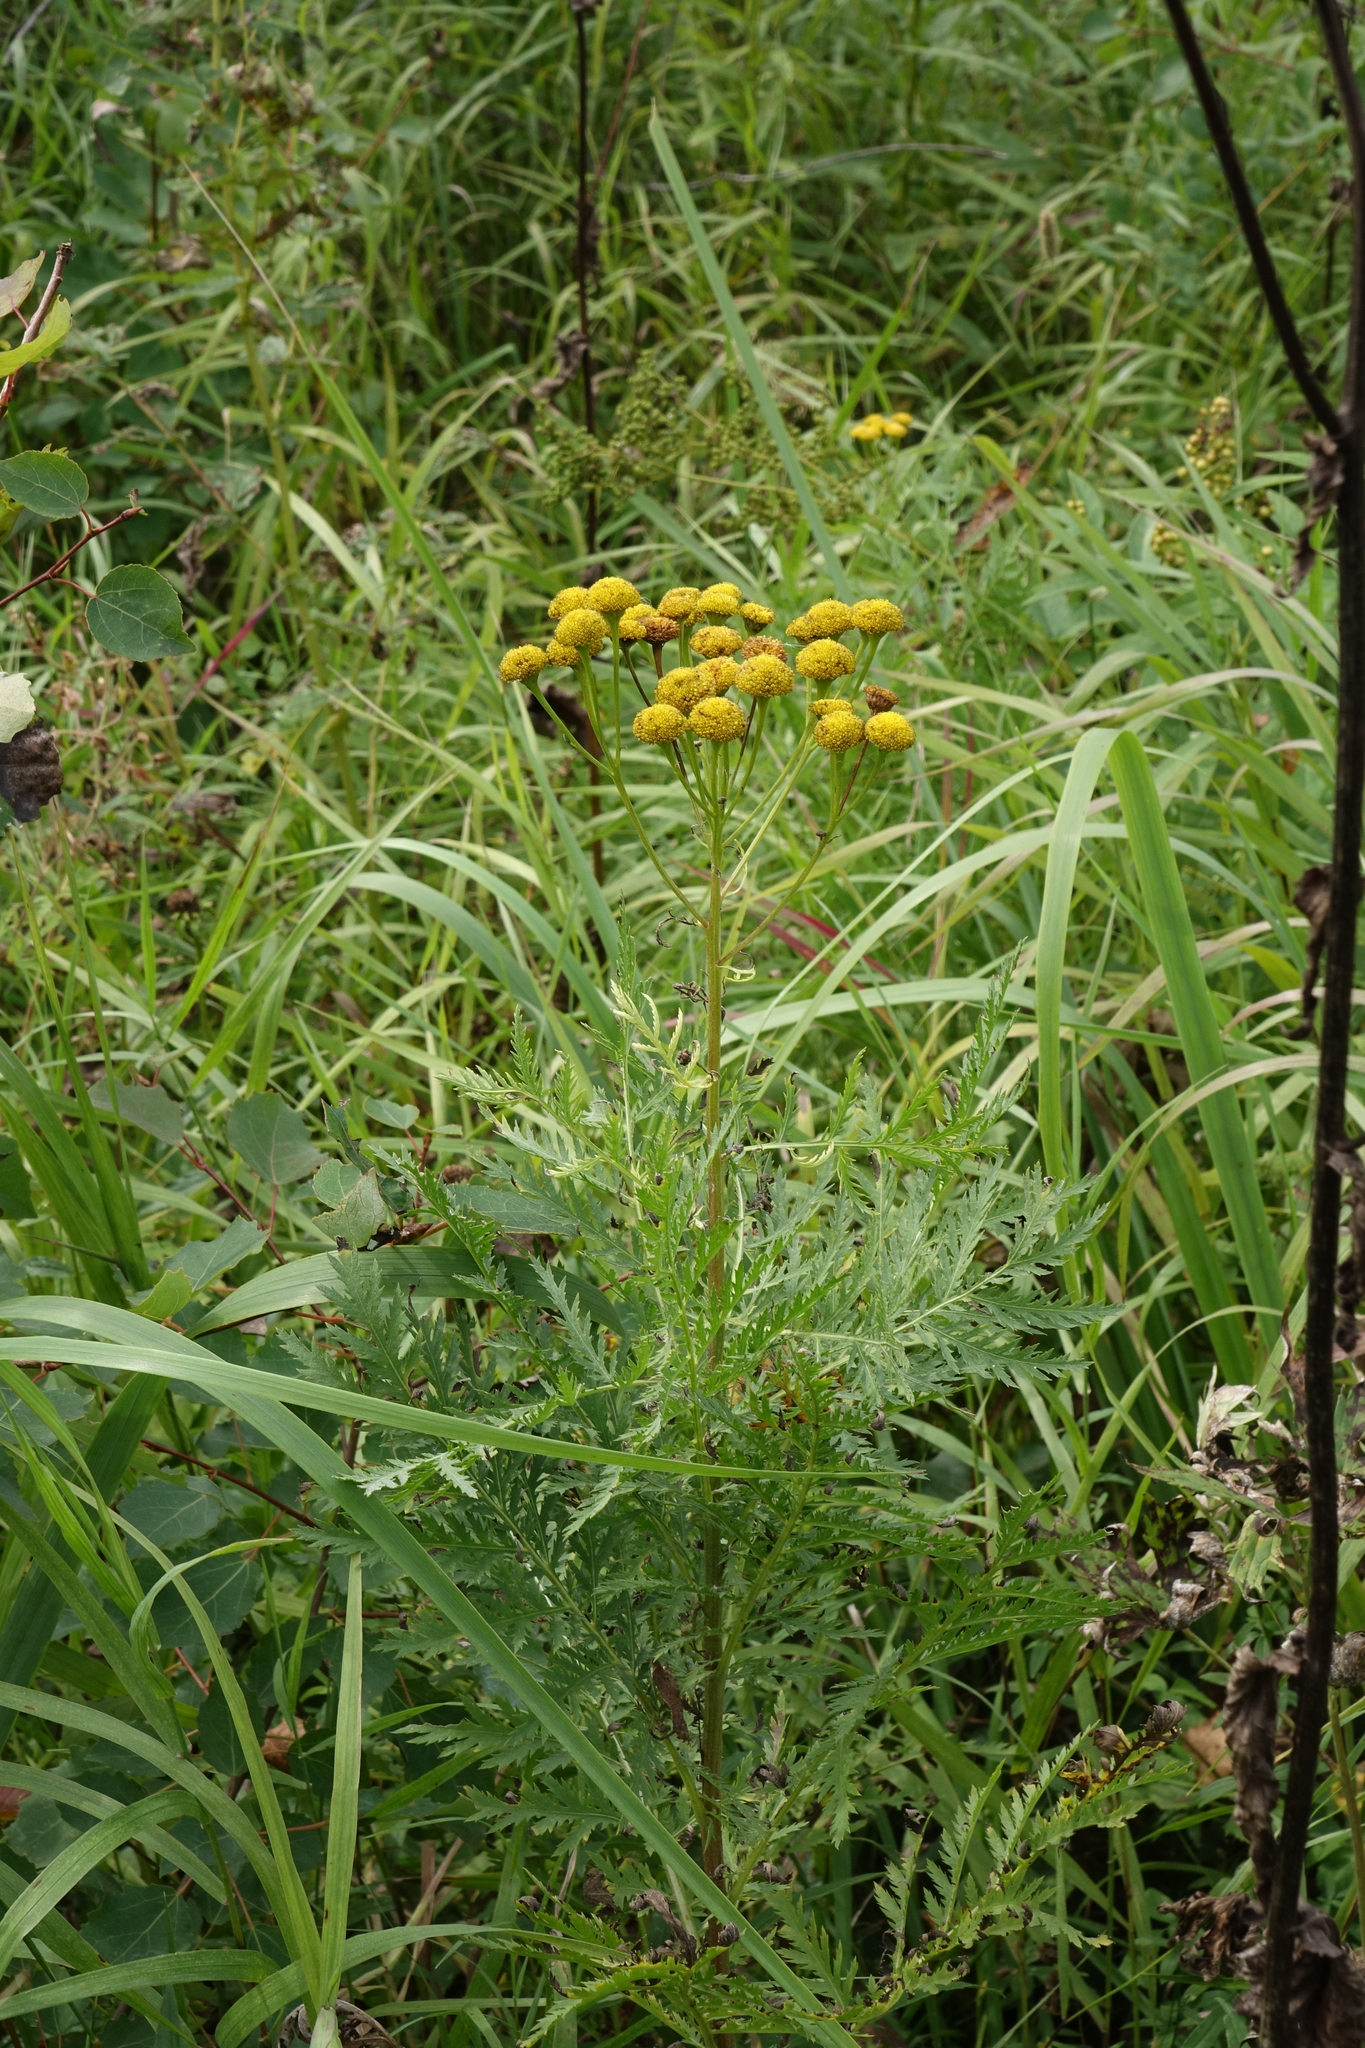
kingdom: Plantae
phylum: Tracheophyta
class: Magnoliopsida
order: Asterales
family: Asteraceae
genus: Tanacetum
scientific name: Tanacetum vulgare
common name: Common tansy
